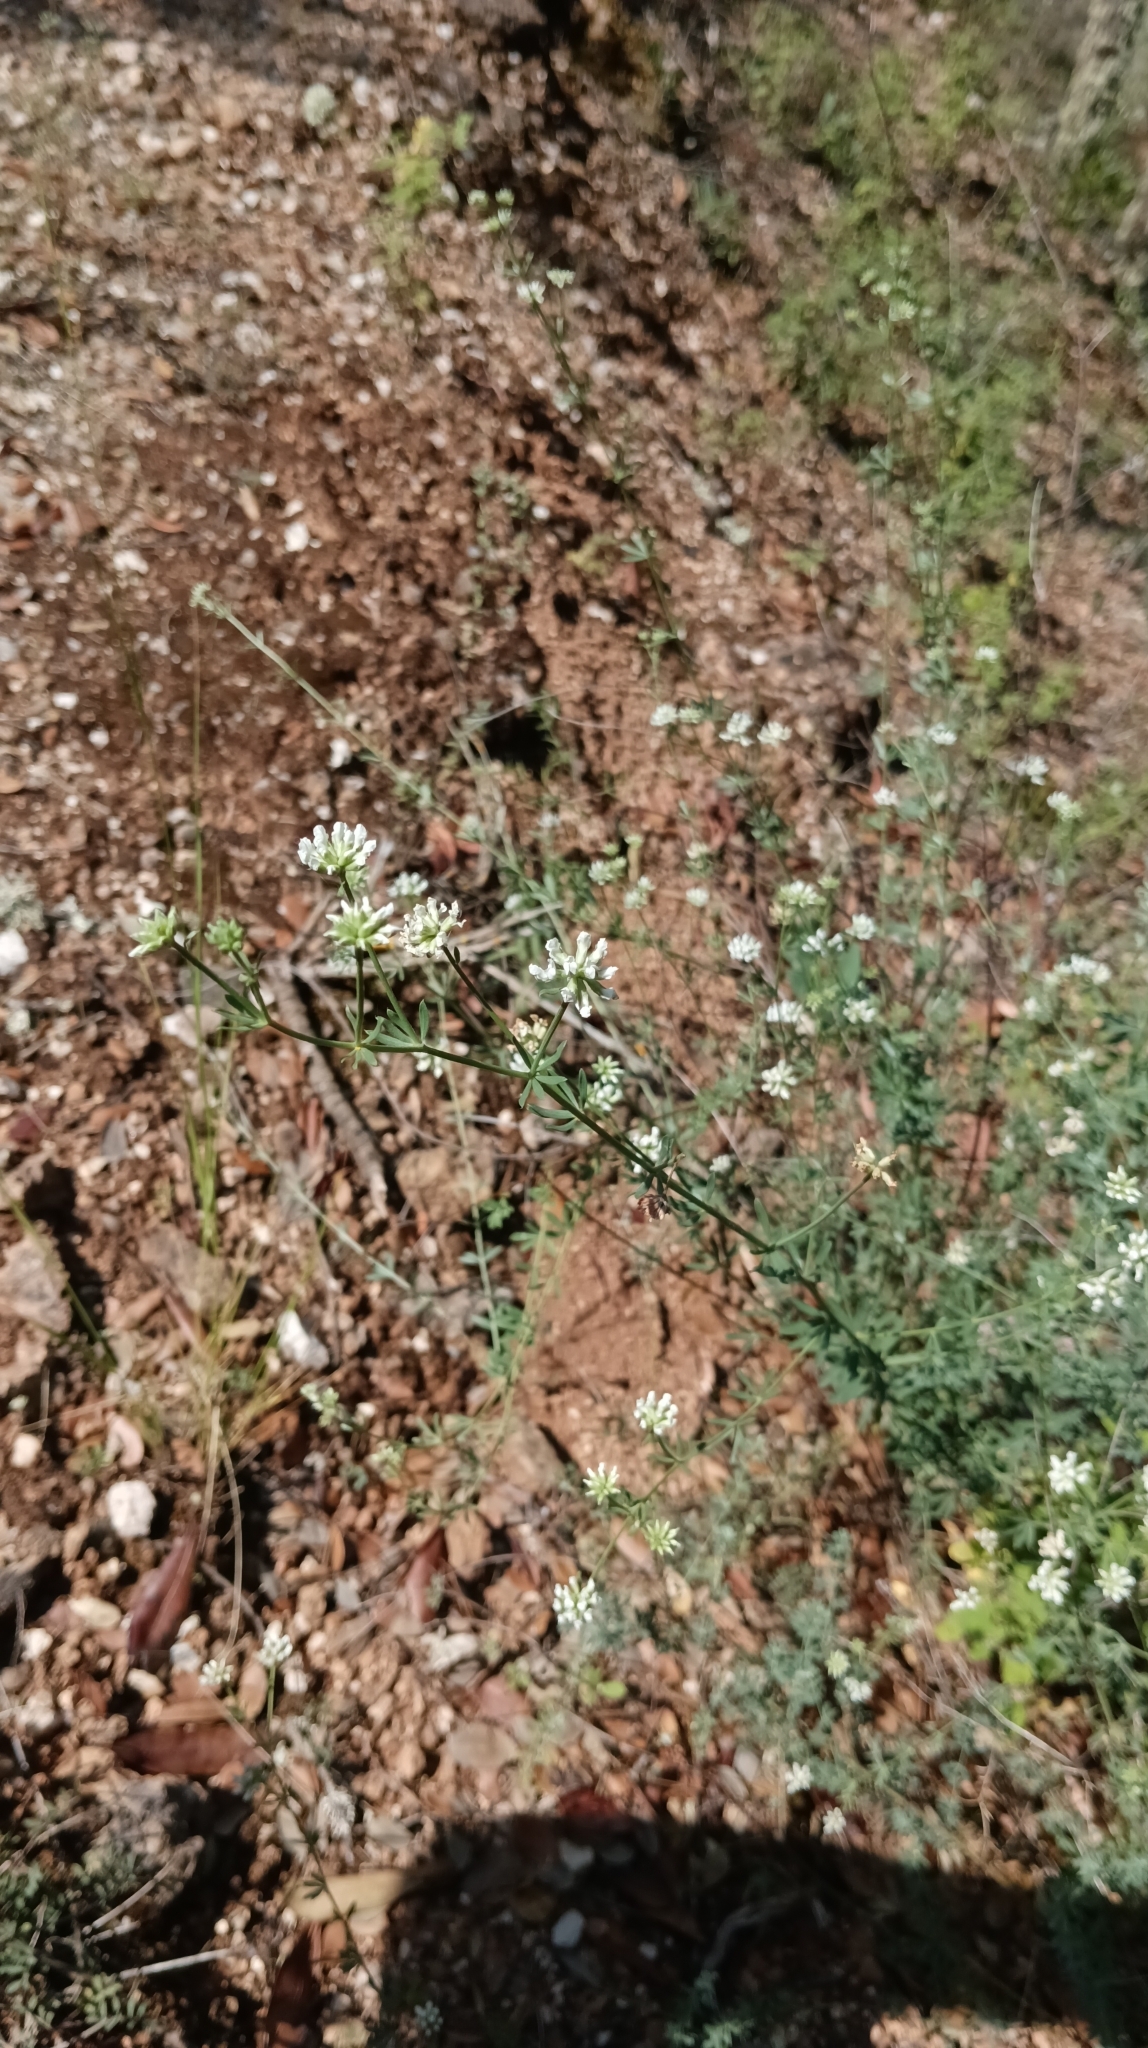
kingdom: Plantae
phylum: Tracheophyta
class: Magnoliopsida
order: Fabales
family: Fabaceae
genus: Lotus
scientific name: Lotus dorycnium
